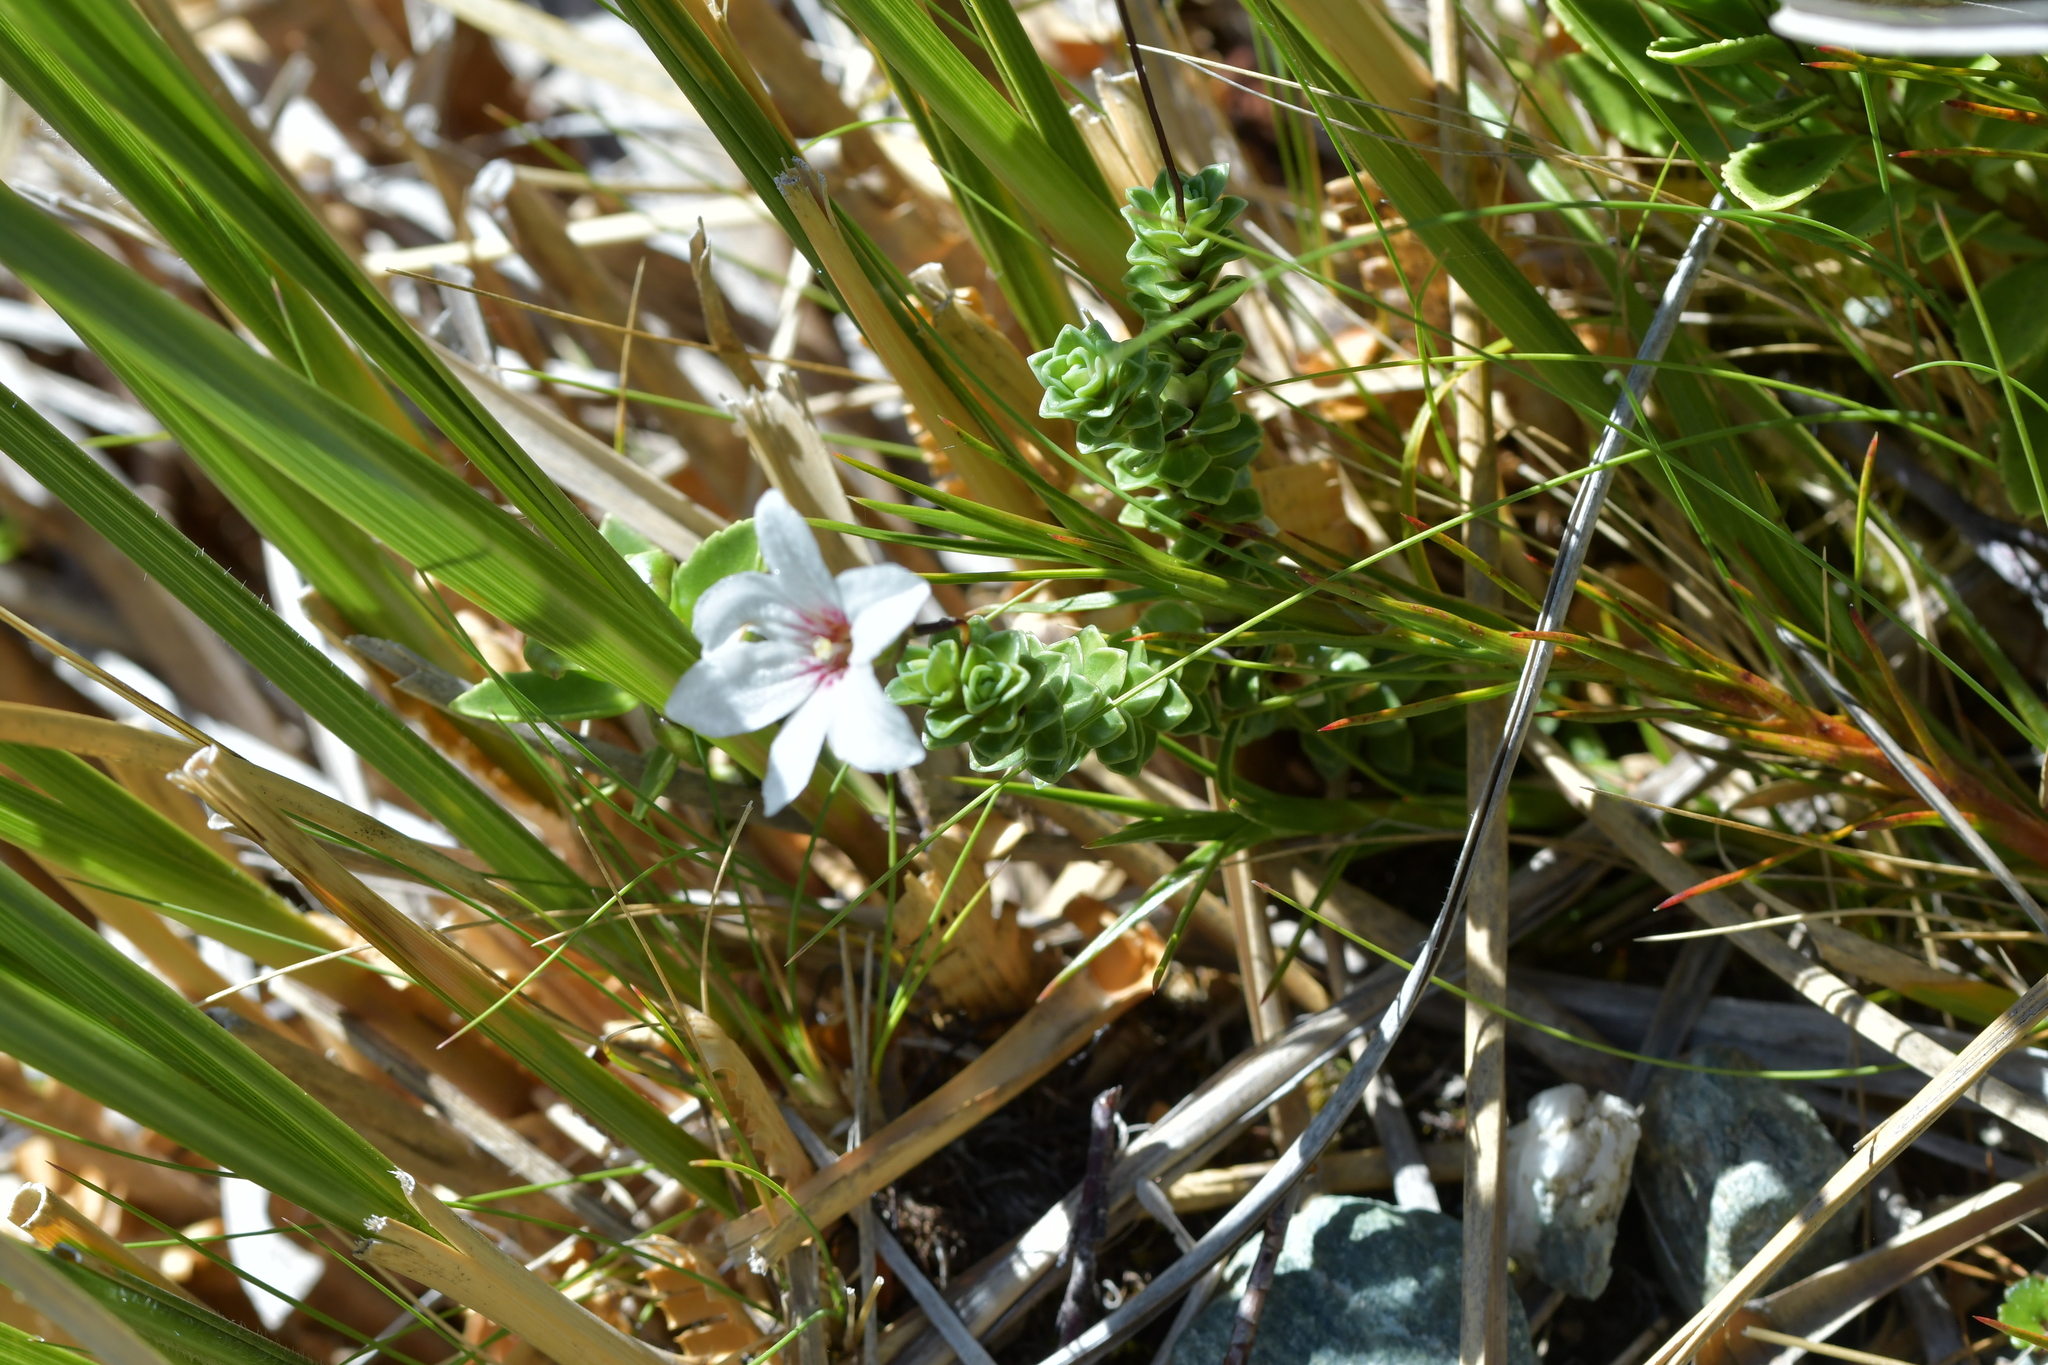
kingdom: Plantae
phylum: Tracheophyta
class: Magnoliopsida
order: Asterales
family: Stylidiaceae
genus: Forstera
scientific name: Forstera sedifolia
